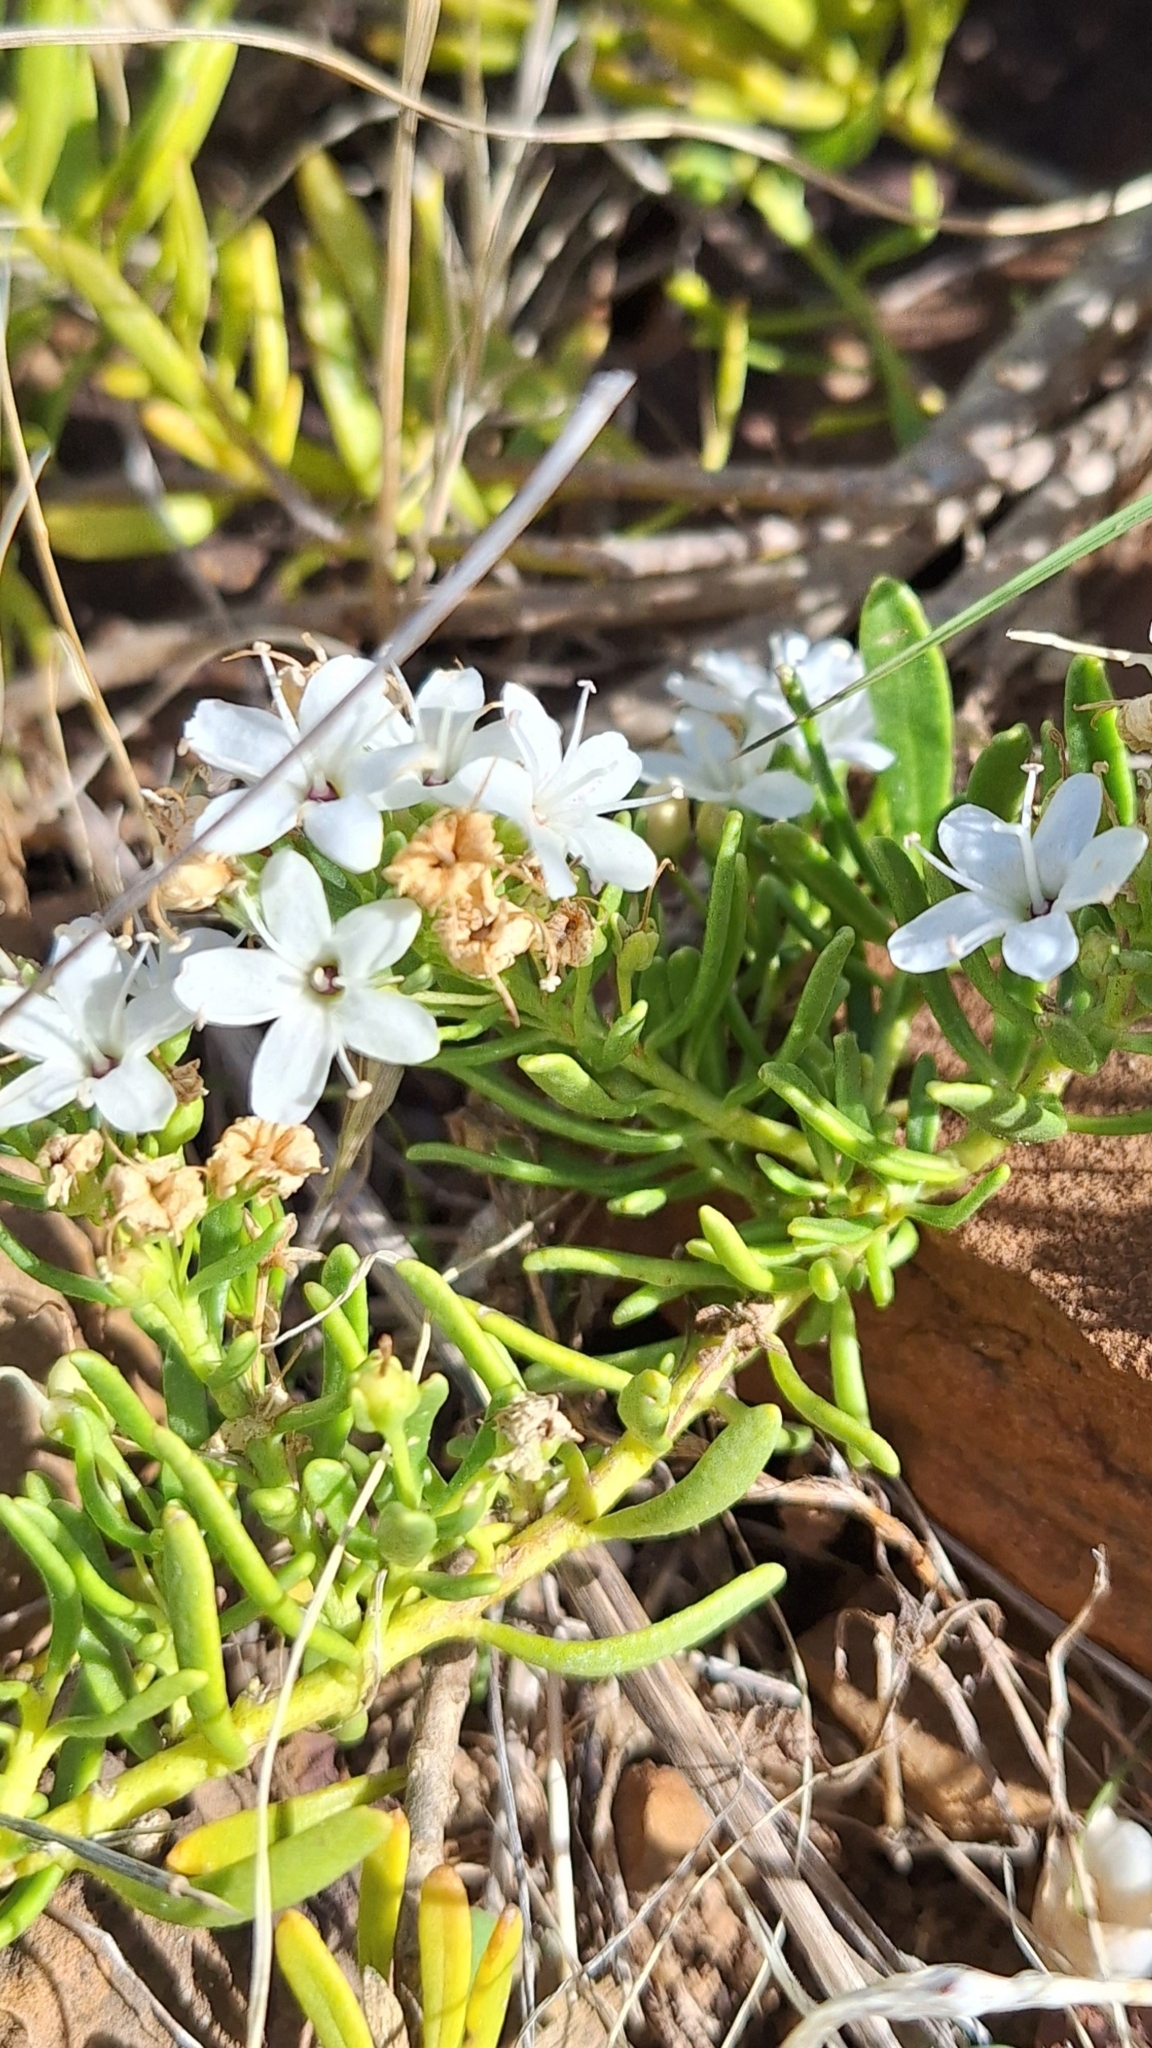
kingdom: Plantae
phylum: Tracheophyta
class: Magnoliopsida
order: Lamiales
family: Scrophulariaceae
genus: Myoporum
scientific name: Myoporum parvifolium
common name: Dwarf native-myrtle
